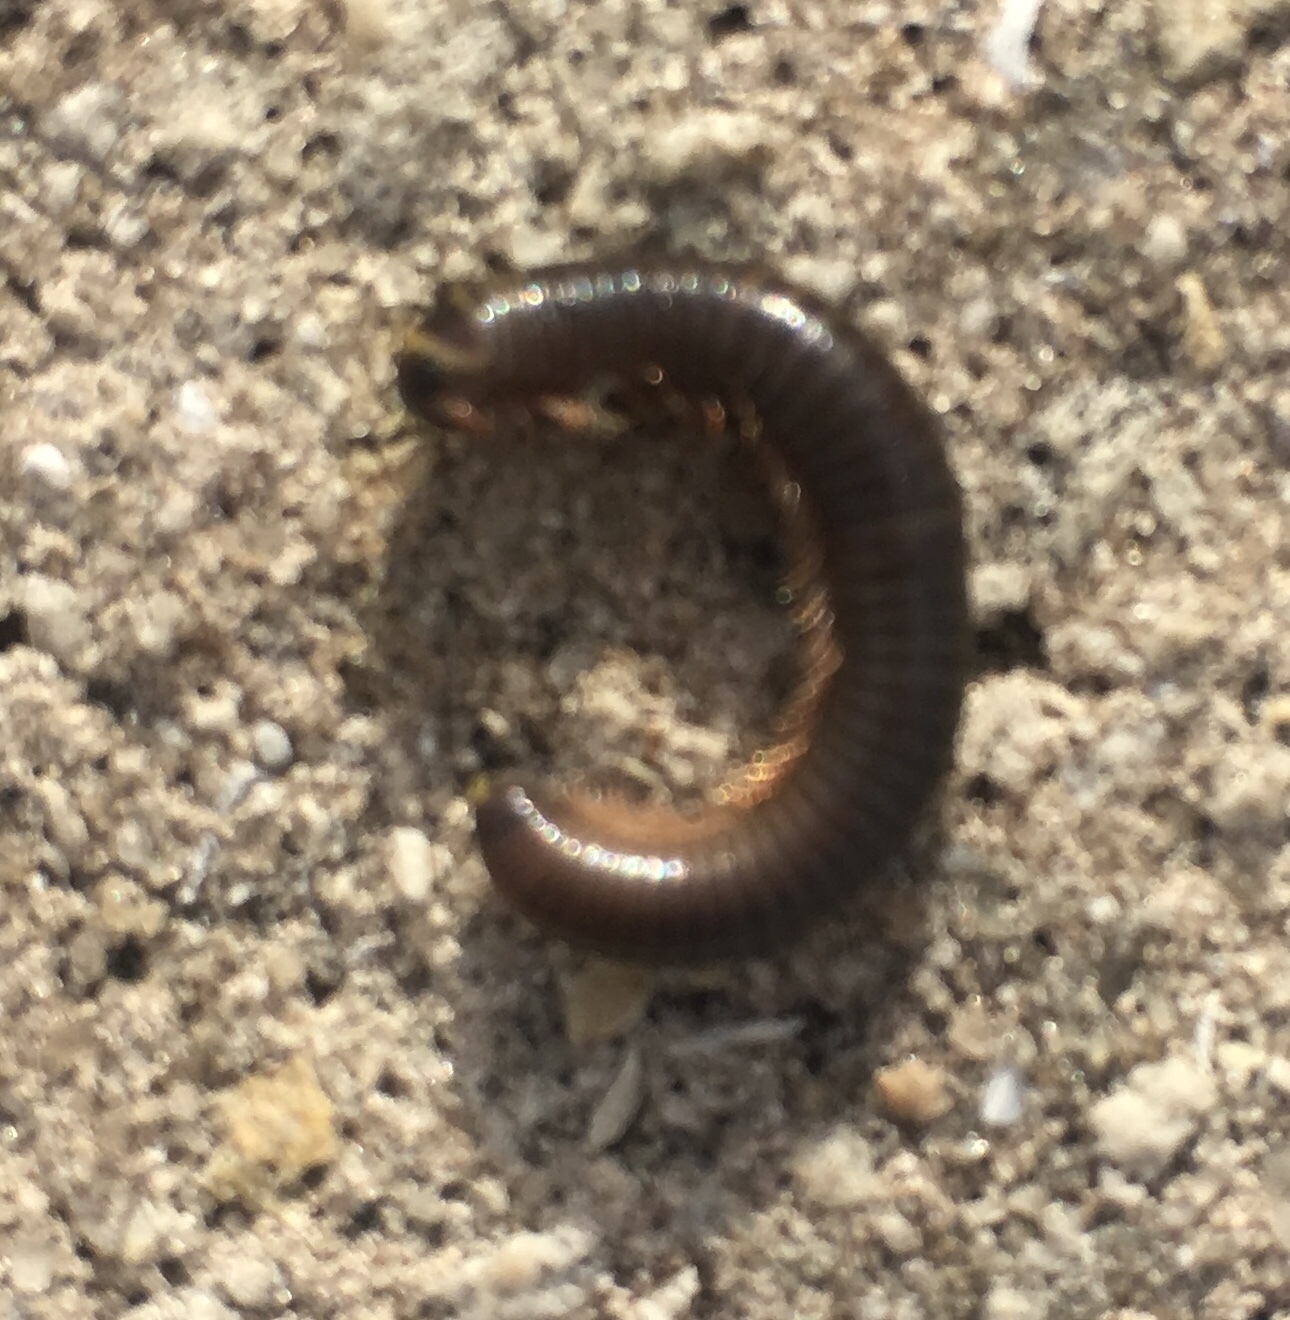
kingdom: Animalia
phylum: Arthropoda
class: Diplopoda
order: Spirobolida
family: Rhinocricidae
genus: Anadenobolus
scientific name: Anadenobolus monilicornis
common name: Caribbean millipede
